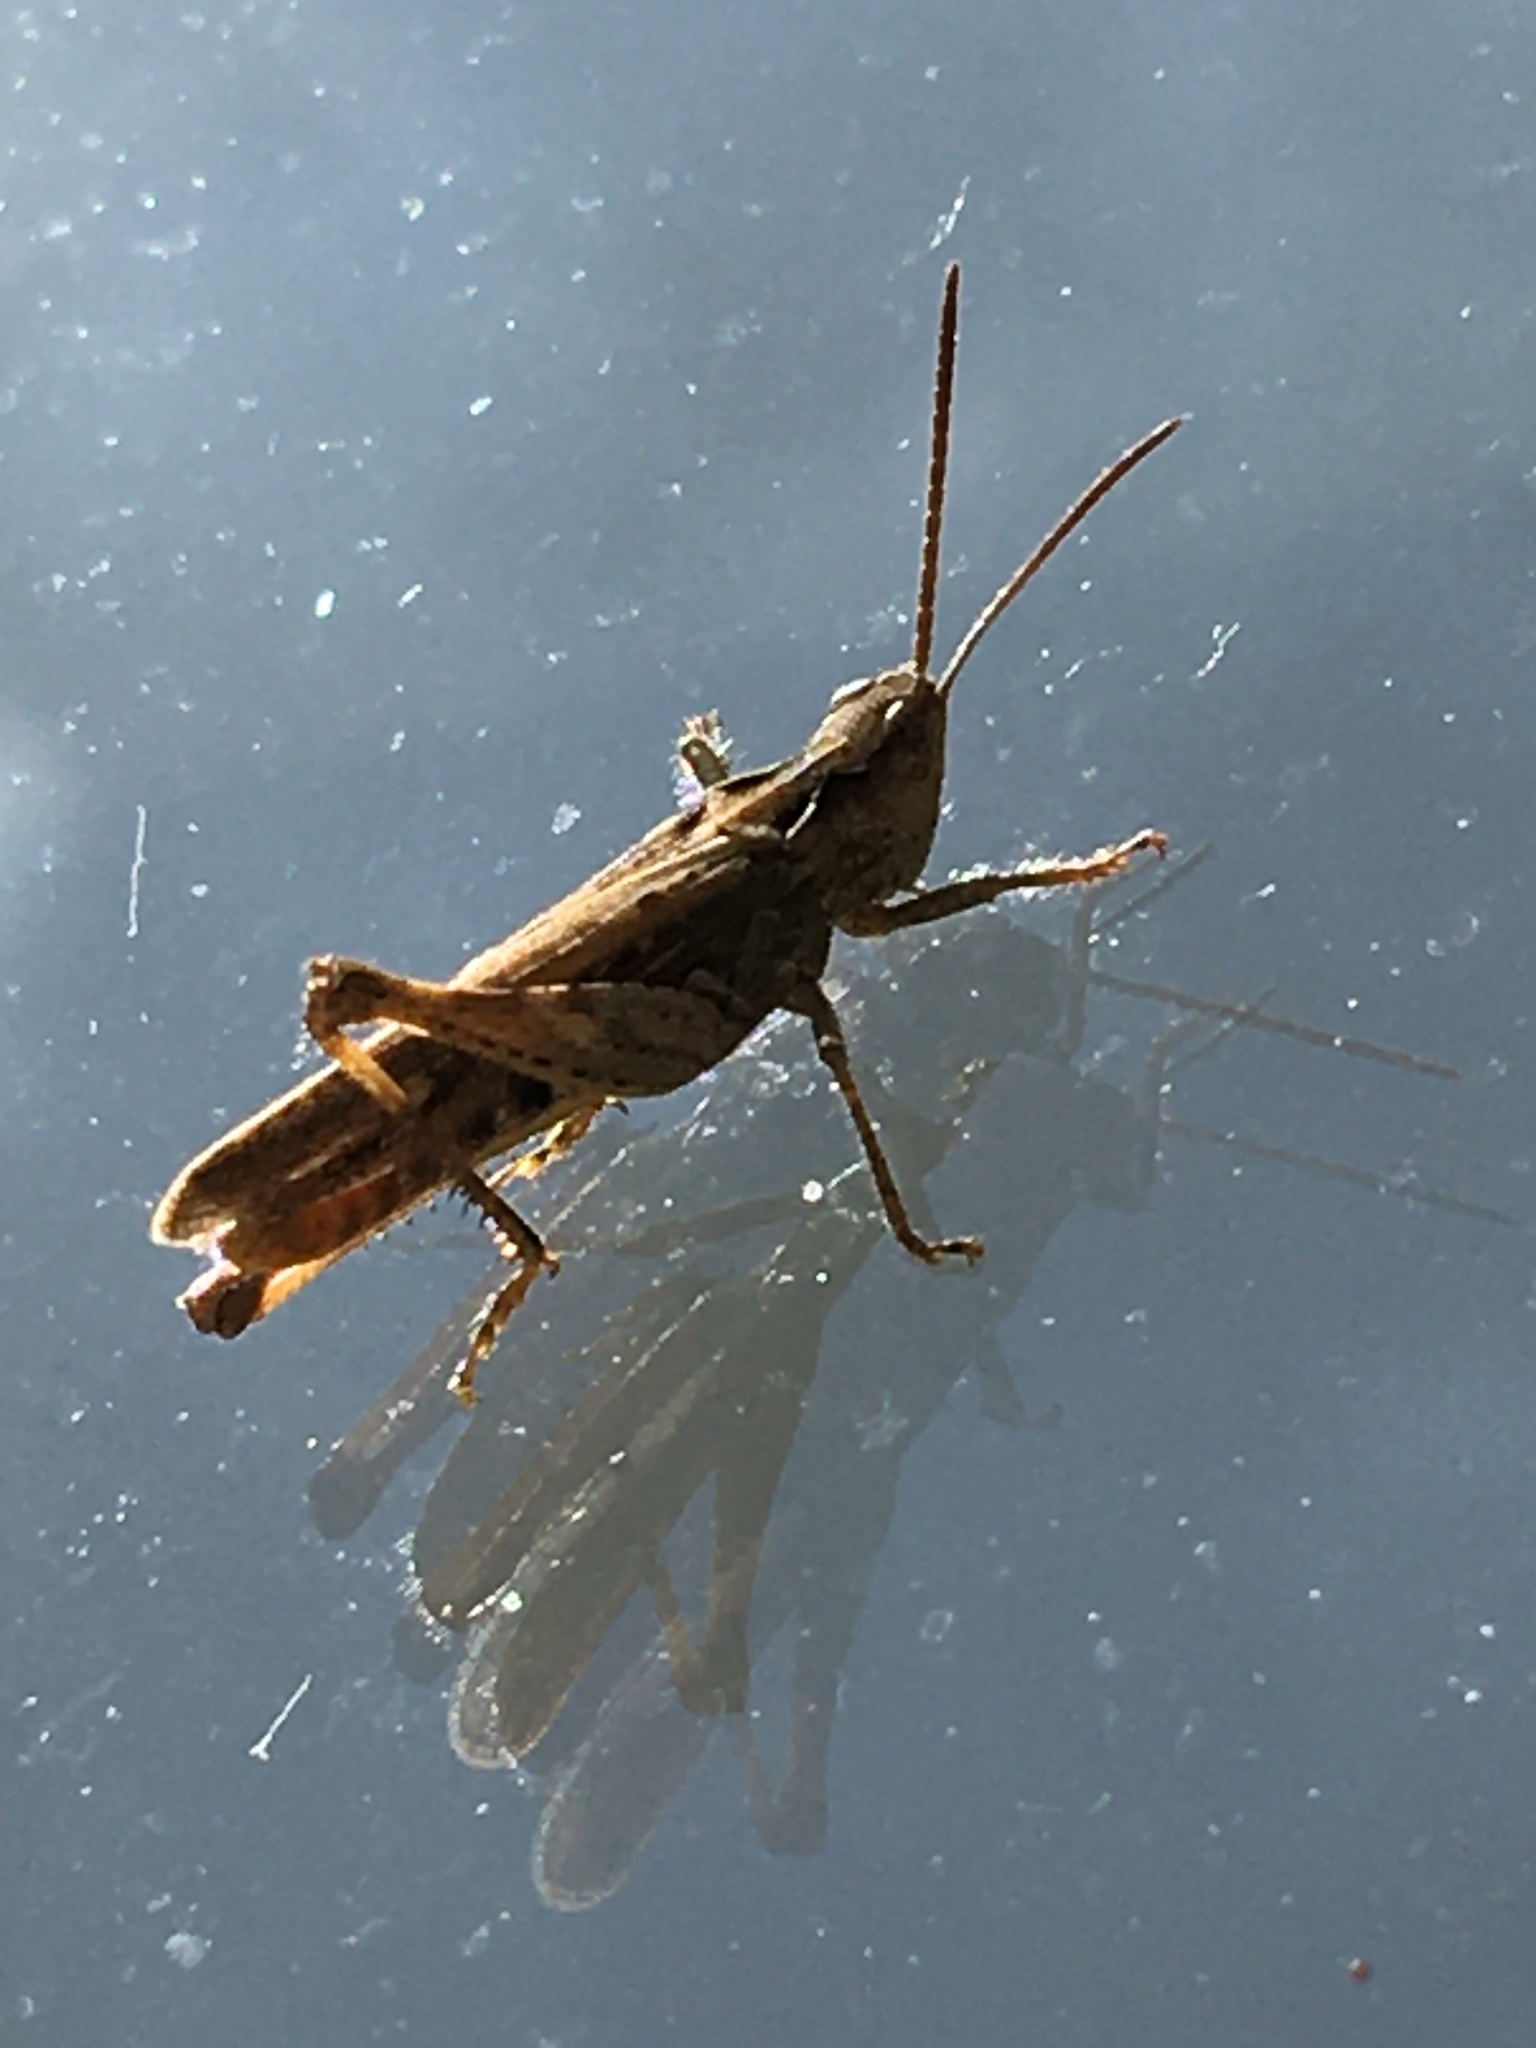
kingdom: Animalia
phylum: Arthropoda
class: Insecta
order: Orthoptera
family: Acrididae
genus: Chorthippus
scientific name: Chorthippus brunneus
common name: Field grasshopper
